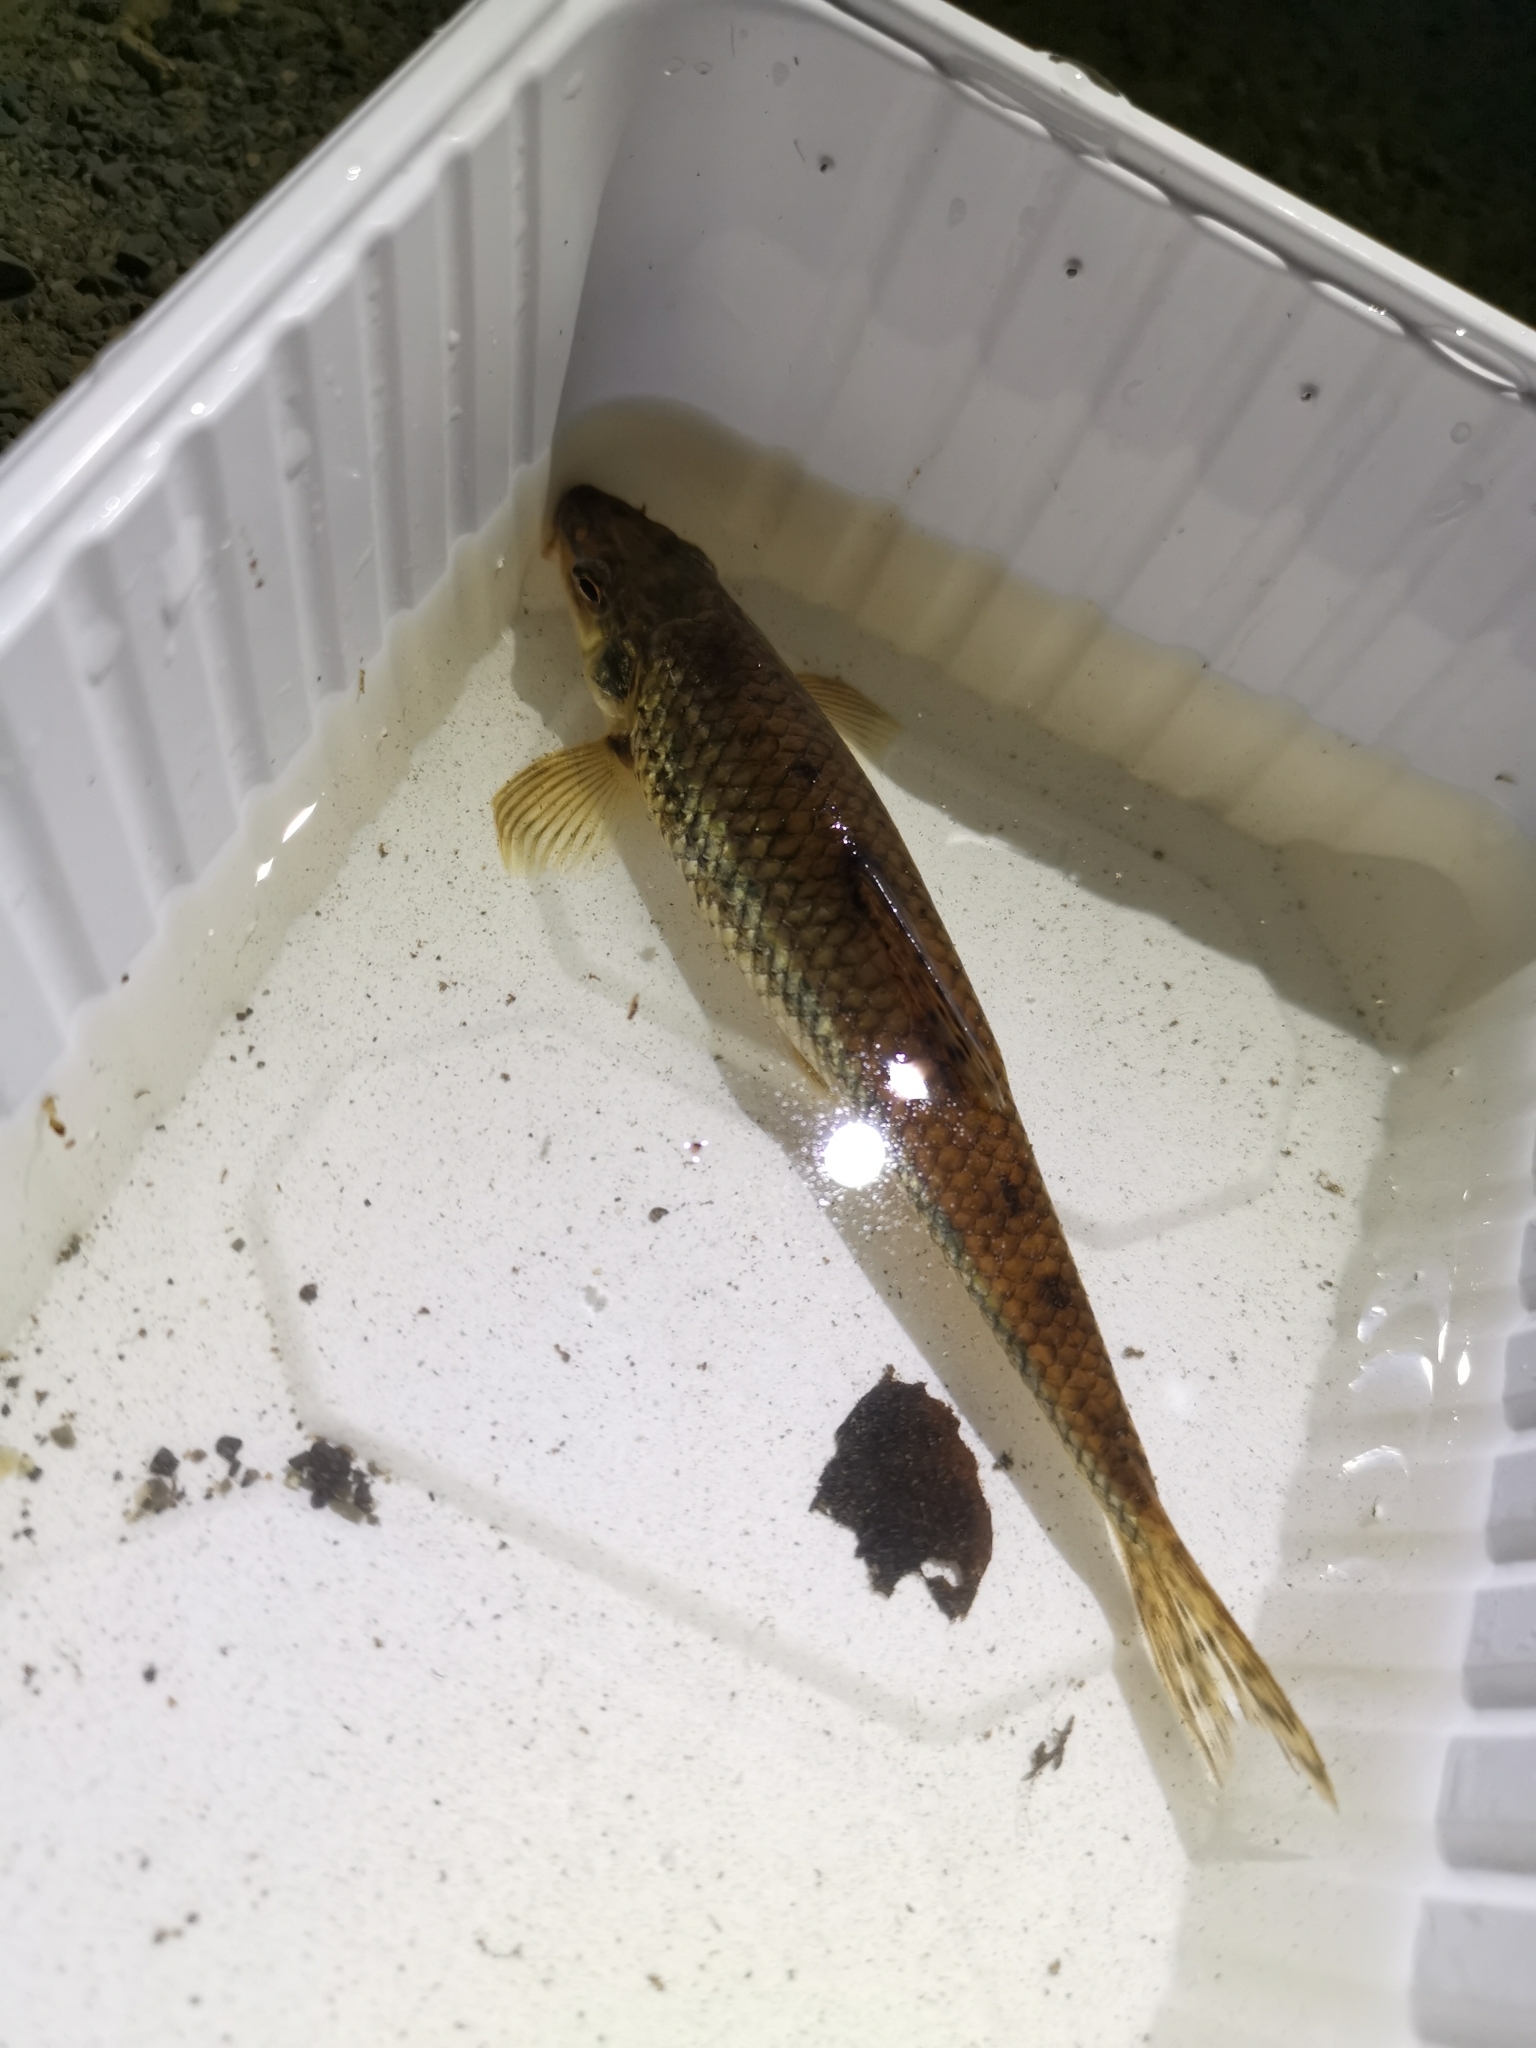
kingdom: Animalia
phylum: Chordata
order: Cypriniformes
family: Cyprinidae
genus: Gobio
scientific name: Gobio gobio
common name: Gudgeon
